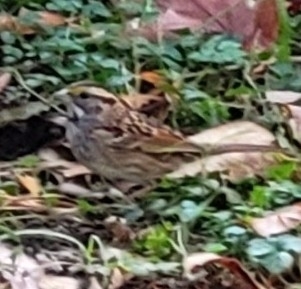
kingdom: Animalia
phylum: Chordata
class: Aves
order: Passeriformes
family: Passerellidae
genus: Zonotrichia
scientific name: Zonotrichia albicollis
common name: White-throated sparrow
